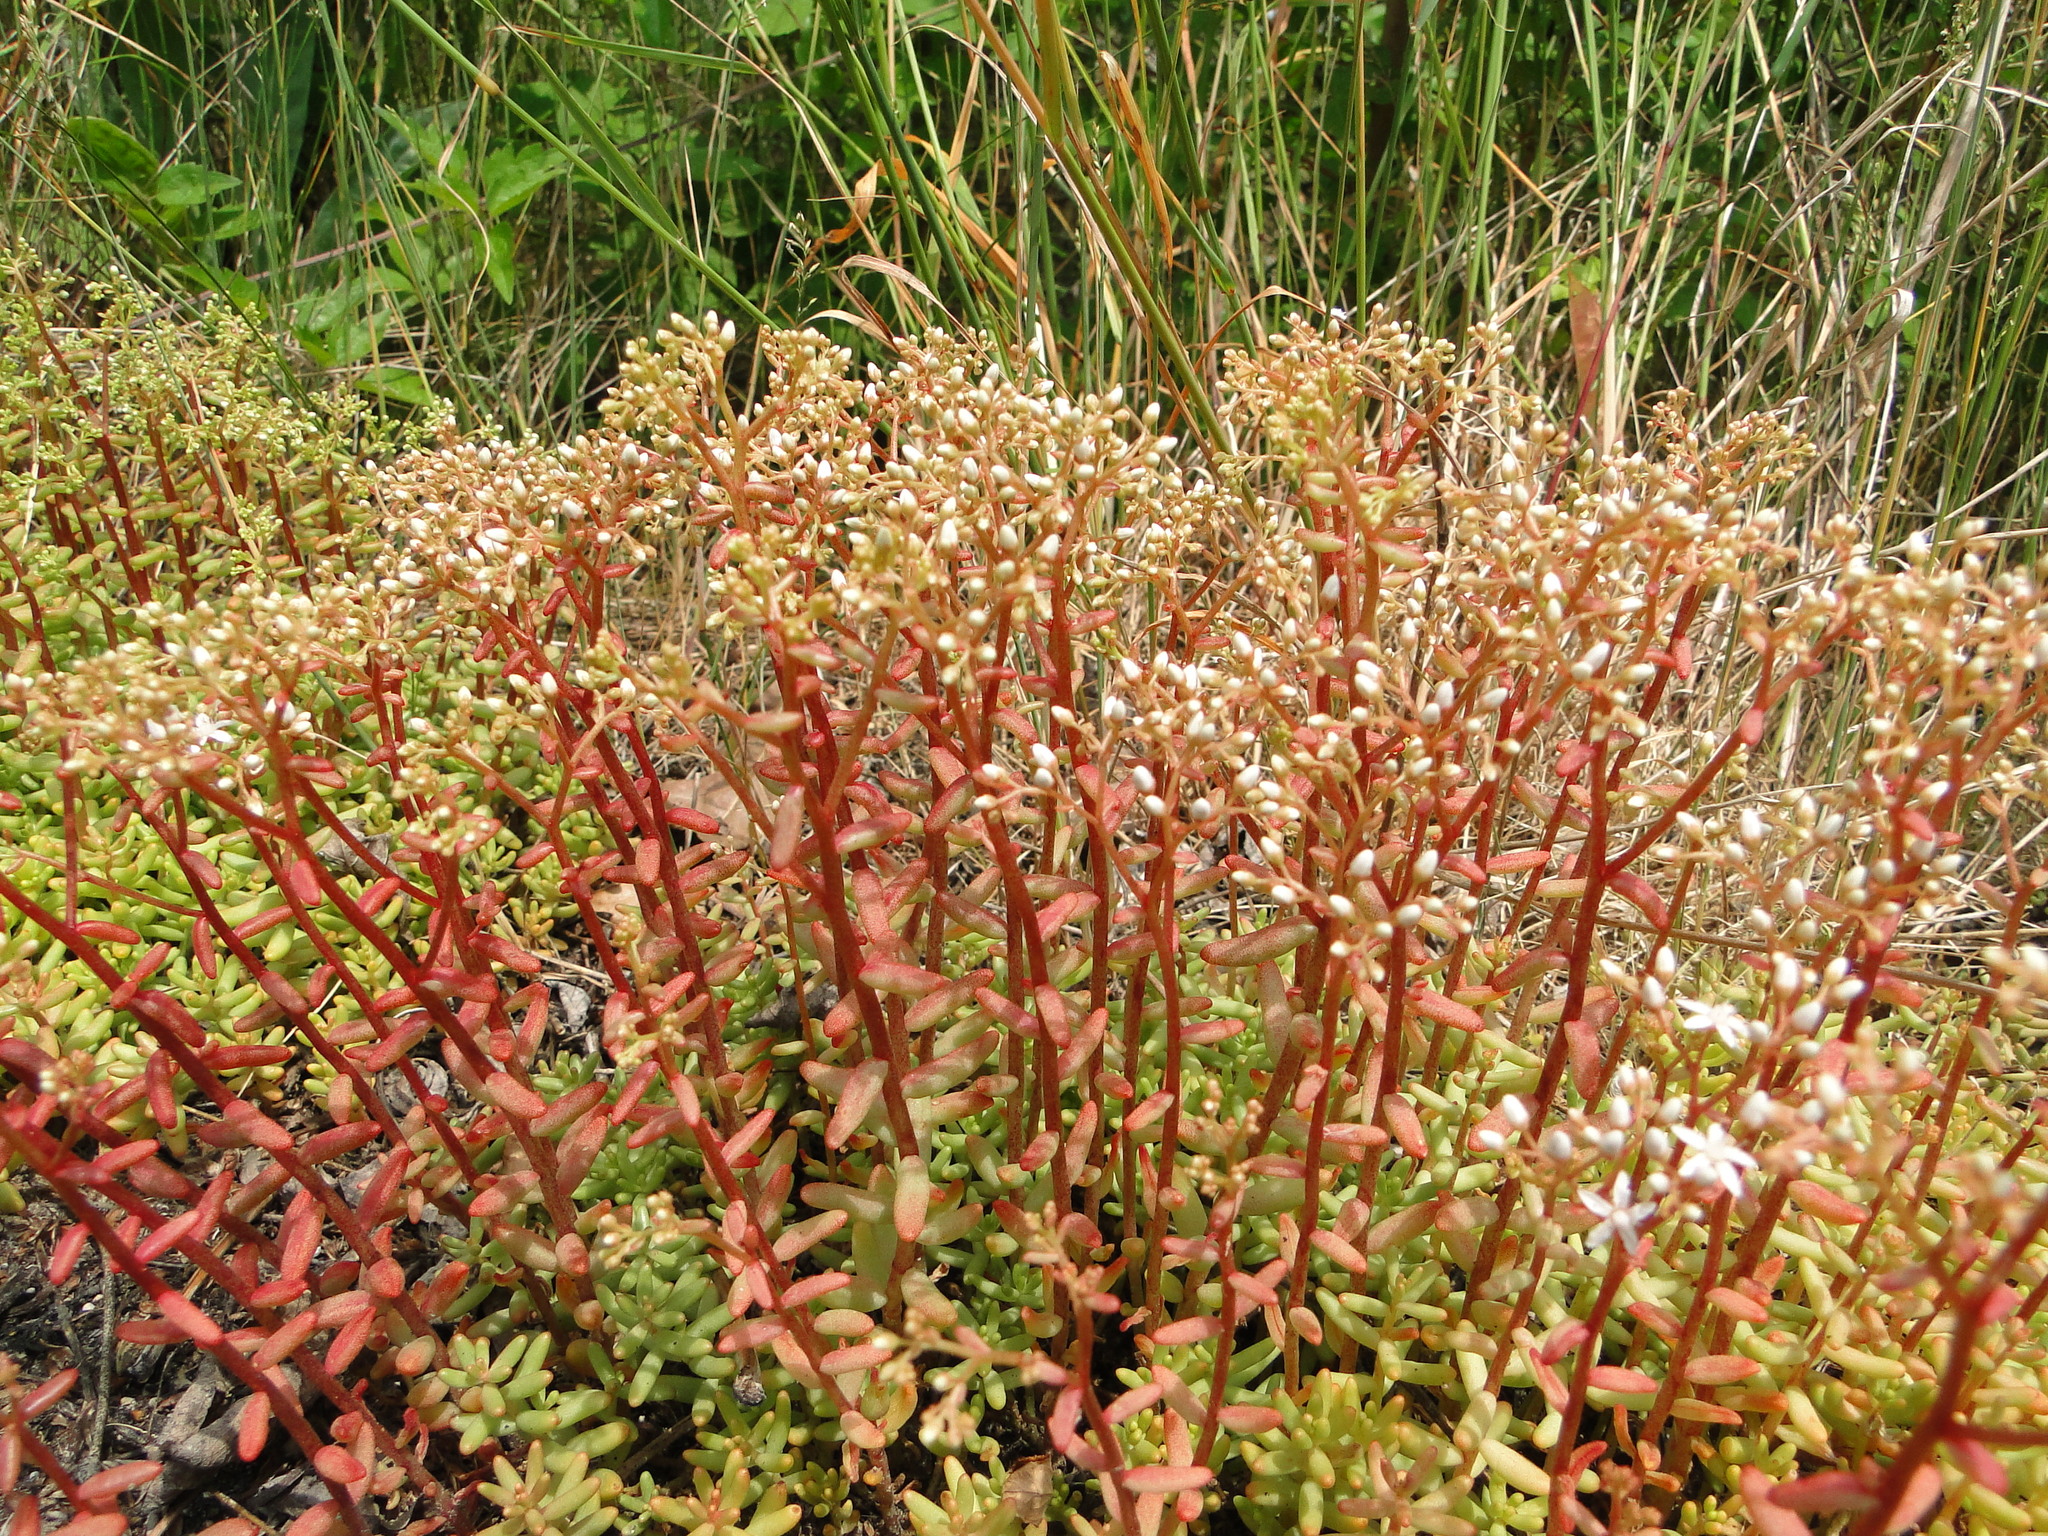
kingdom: Plantae
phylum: Tracheophyta
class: Magnoliopsida
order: Saxifragales
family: Crassulaceae
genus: Sedum
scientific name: Sedum album
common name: White stonecrop
